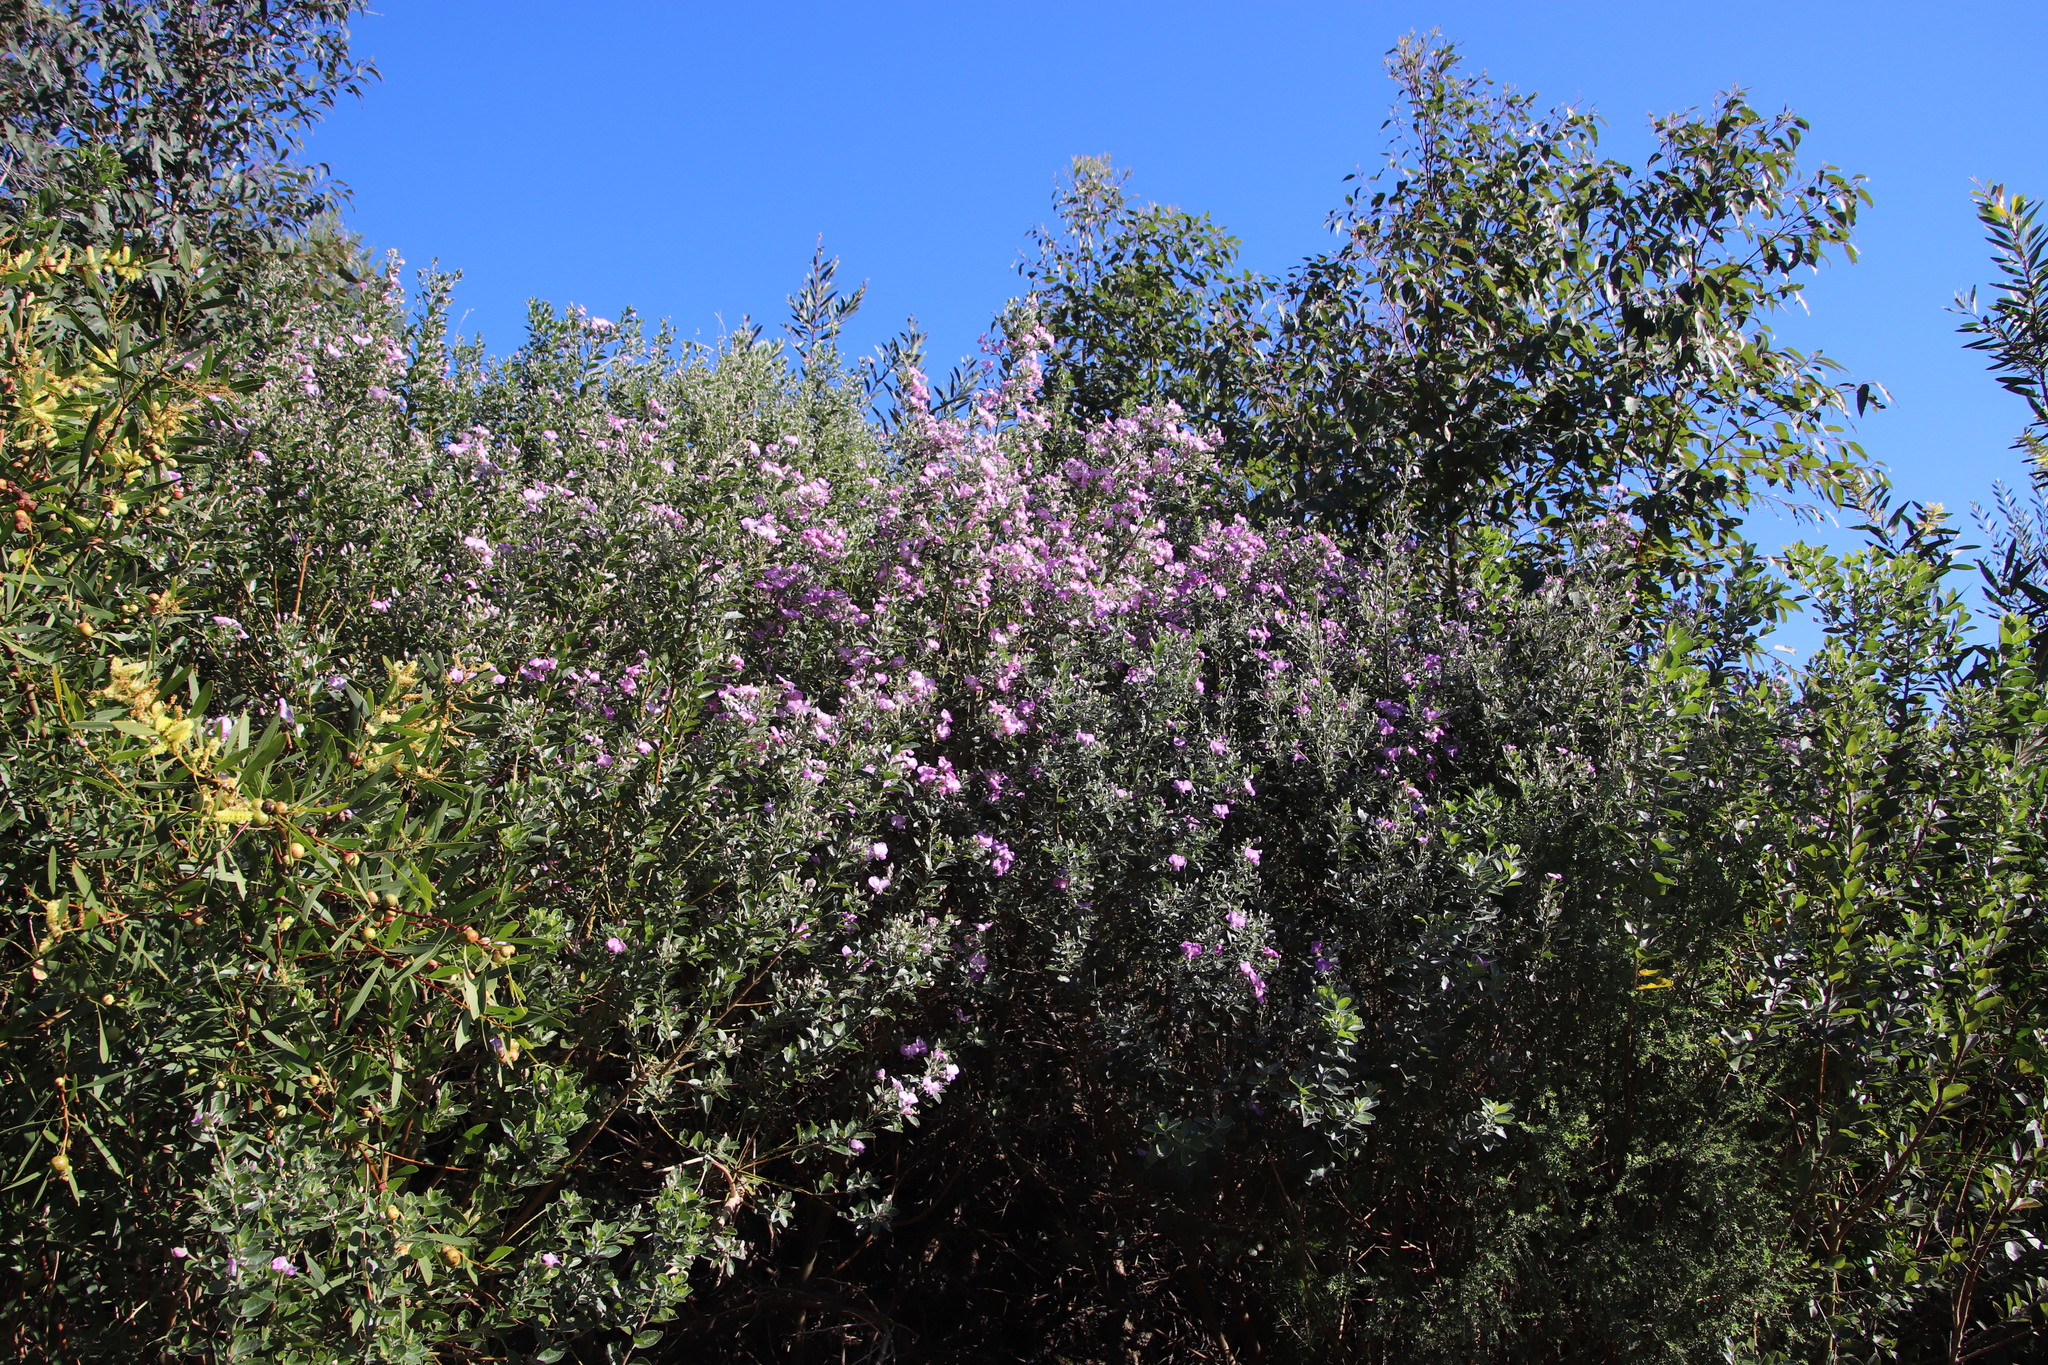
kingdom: Plantae
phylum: Tracheophyta
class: Magnoliopsida
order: Fabales
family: Fabaceae
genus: Podalyria
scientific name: Podalyria calyptrata
